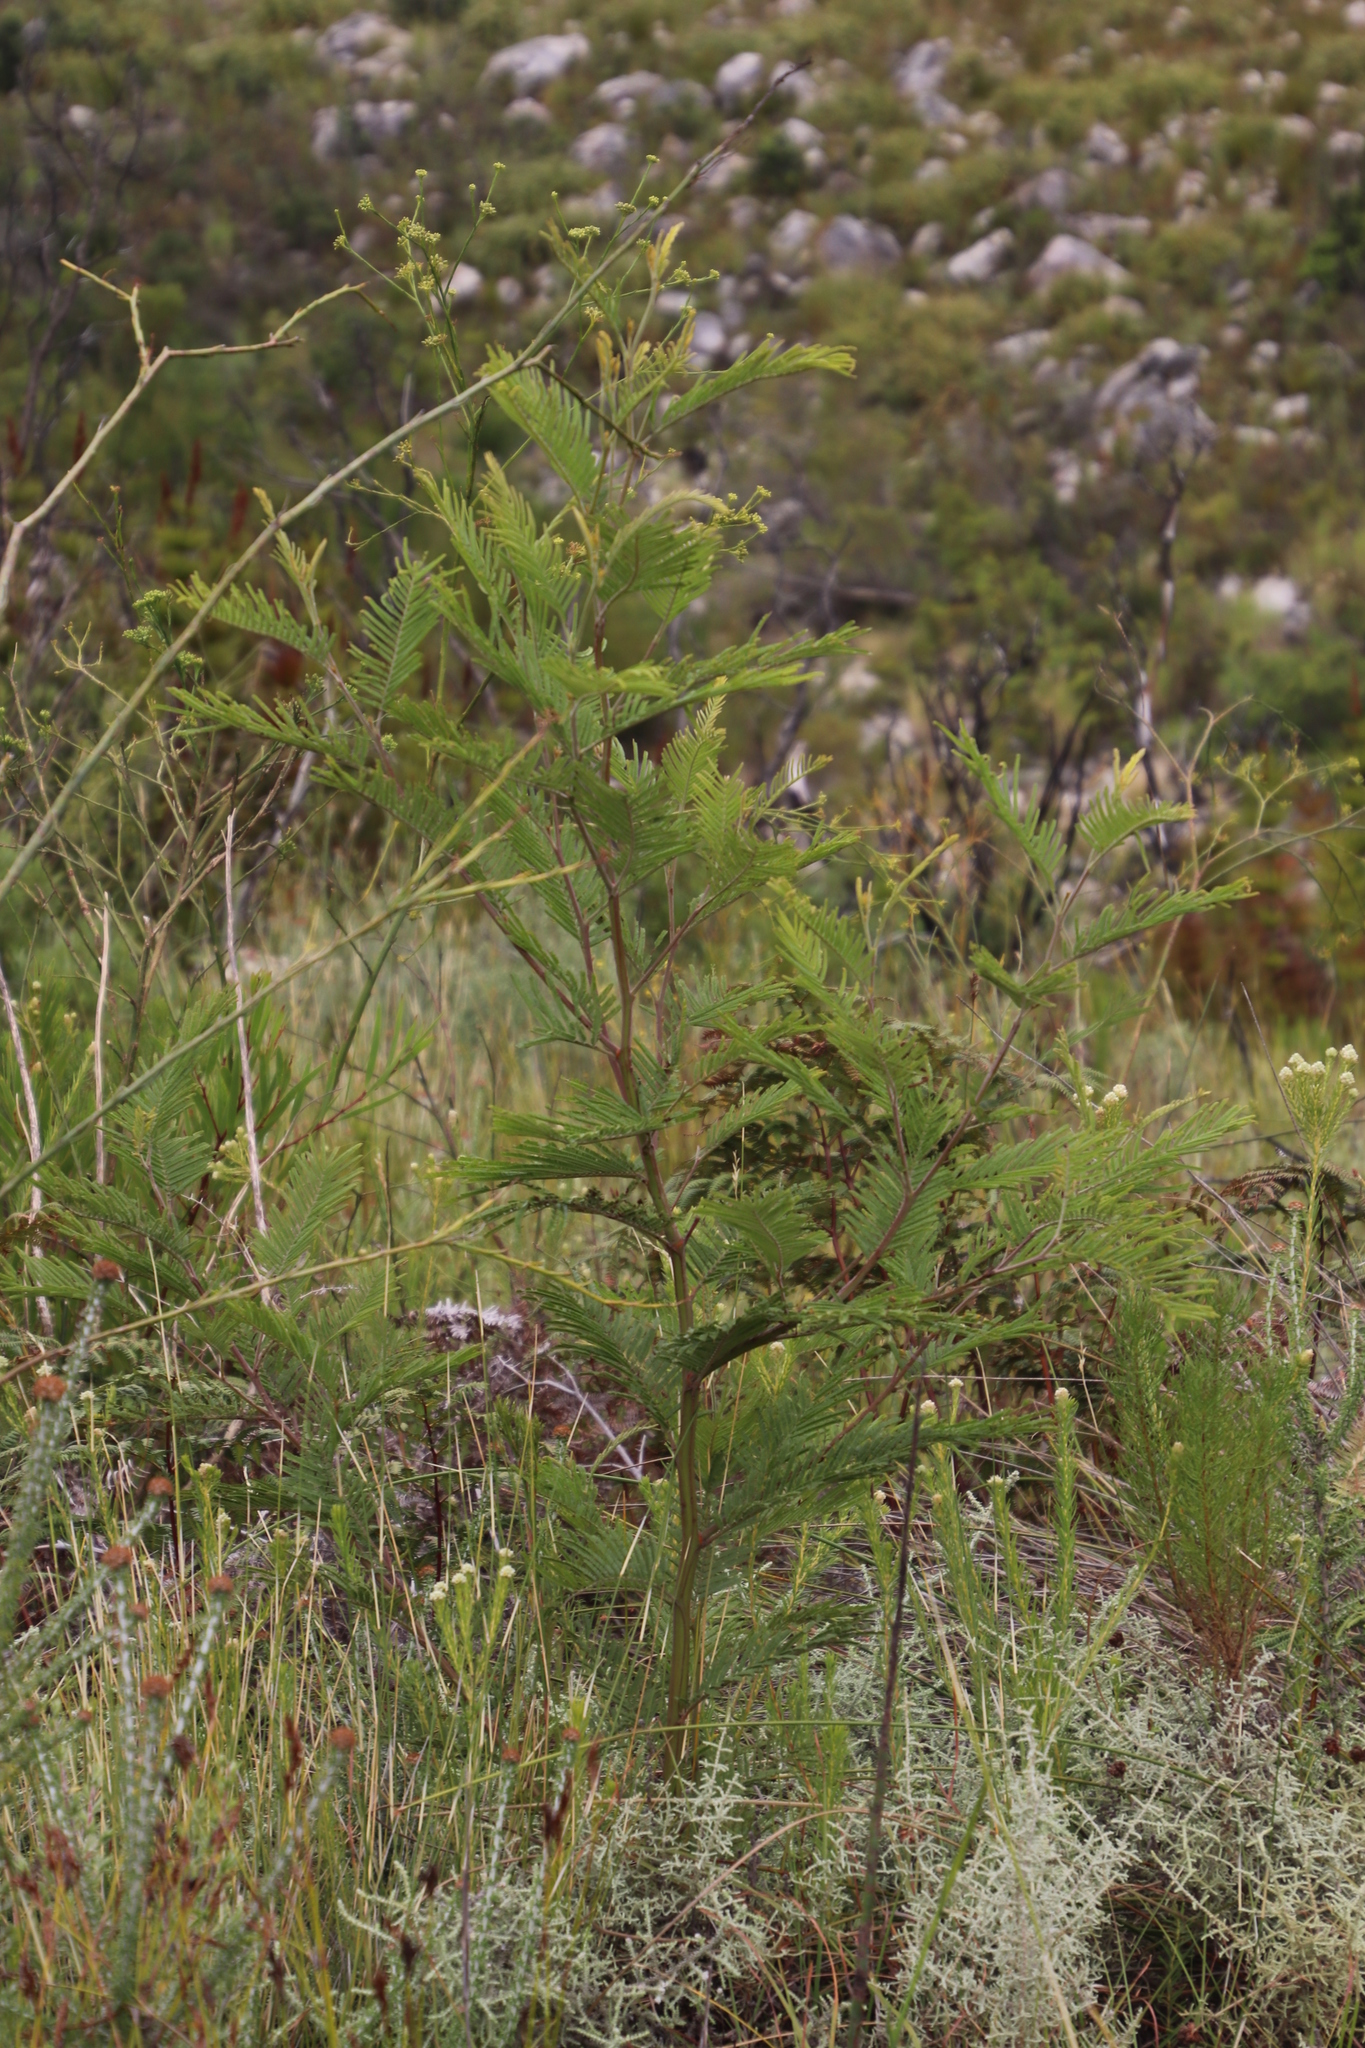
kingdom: Plantae
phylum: Tracheophyta
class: Magnoliopsida
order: Fabales
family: Fabaceae
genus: Acacia
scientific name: Acacia mearnsii
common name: Black wattle
